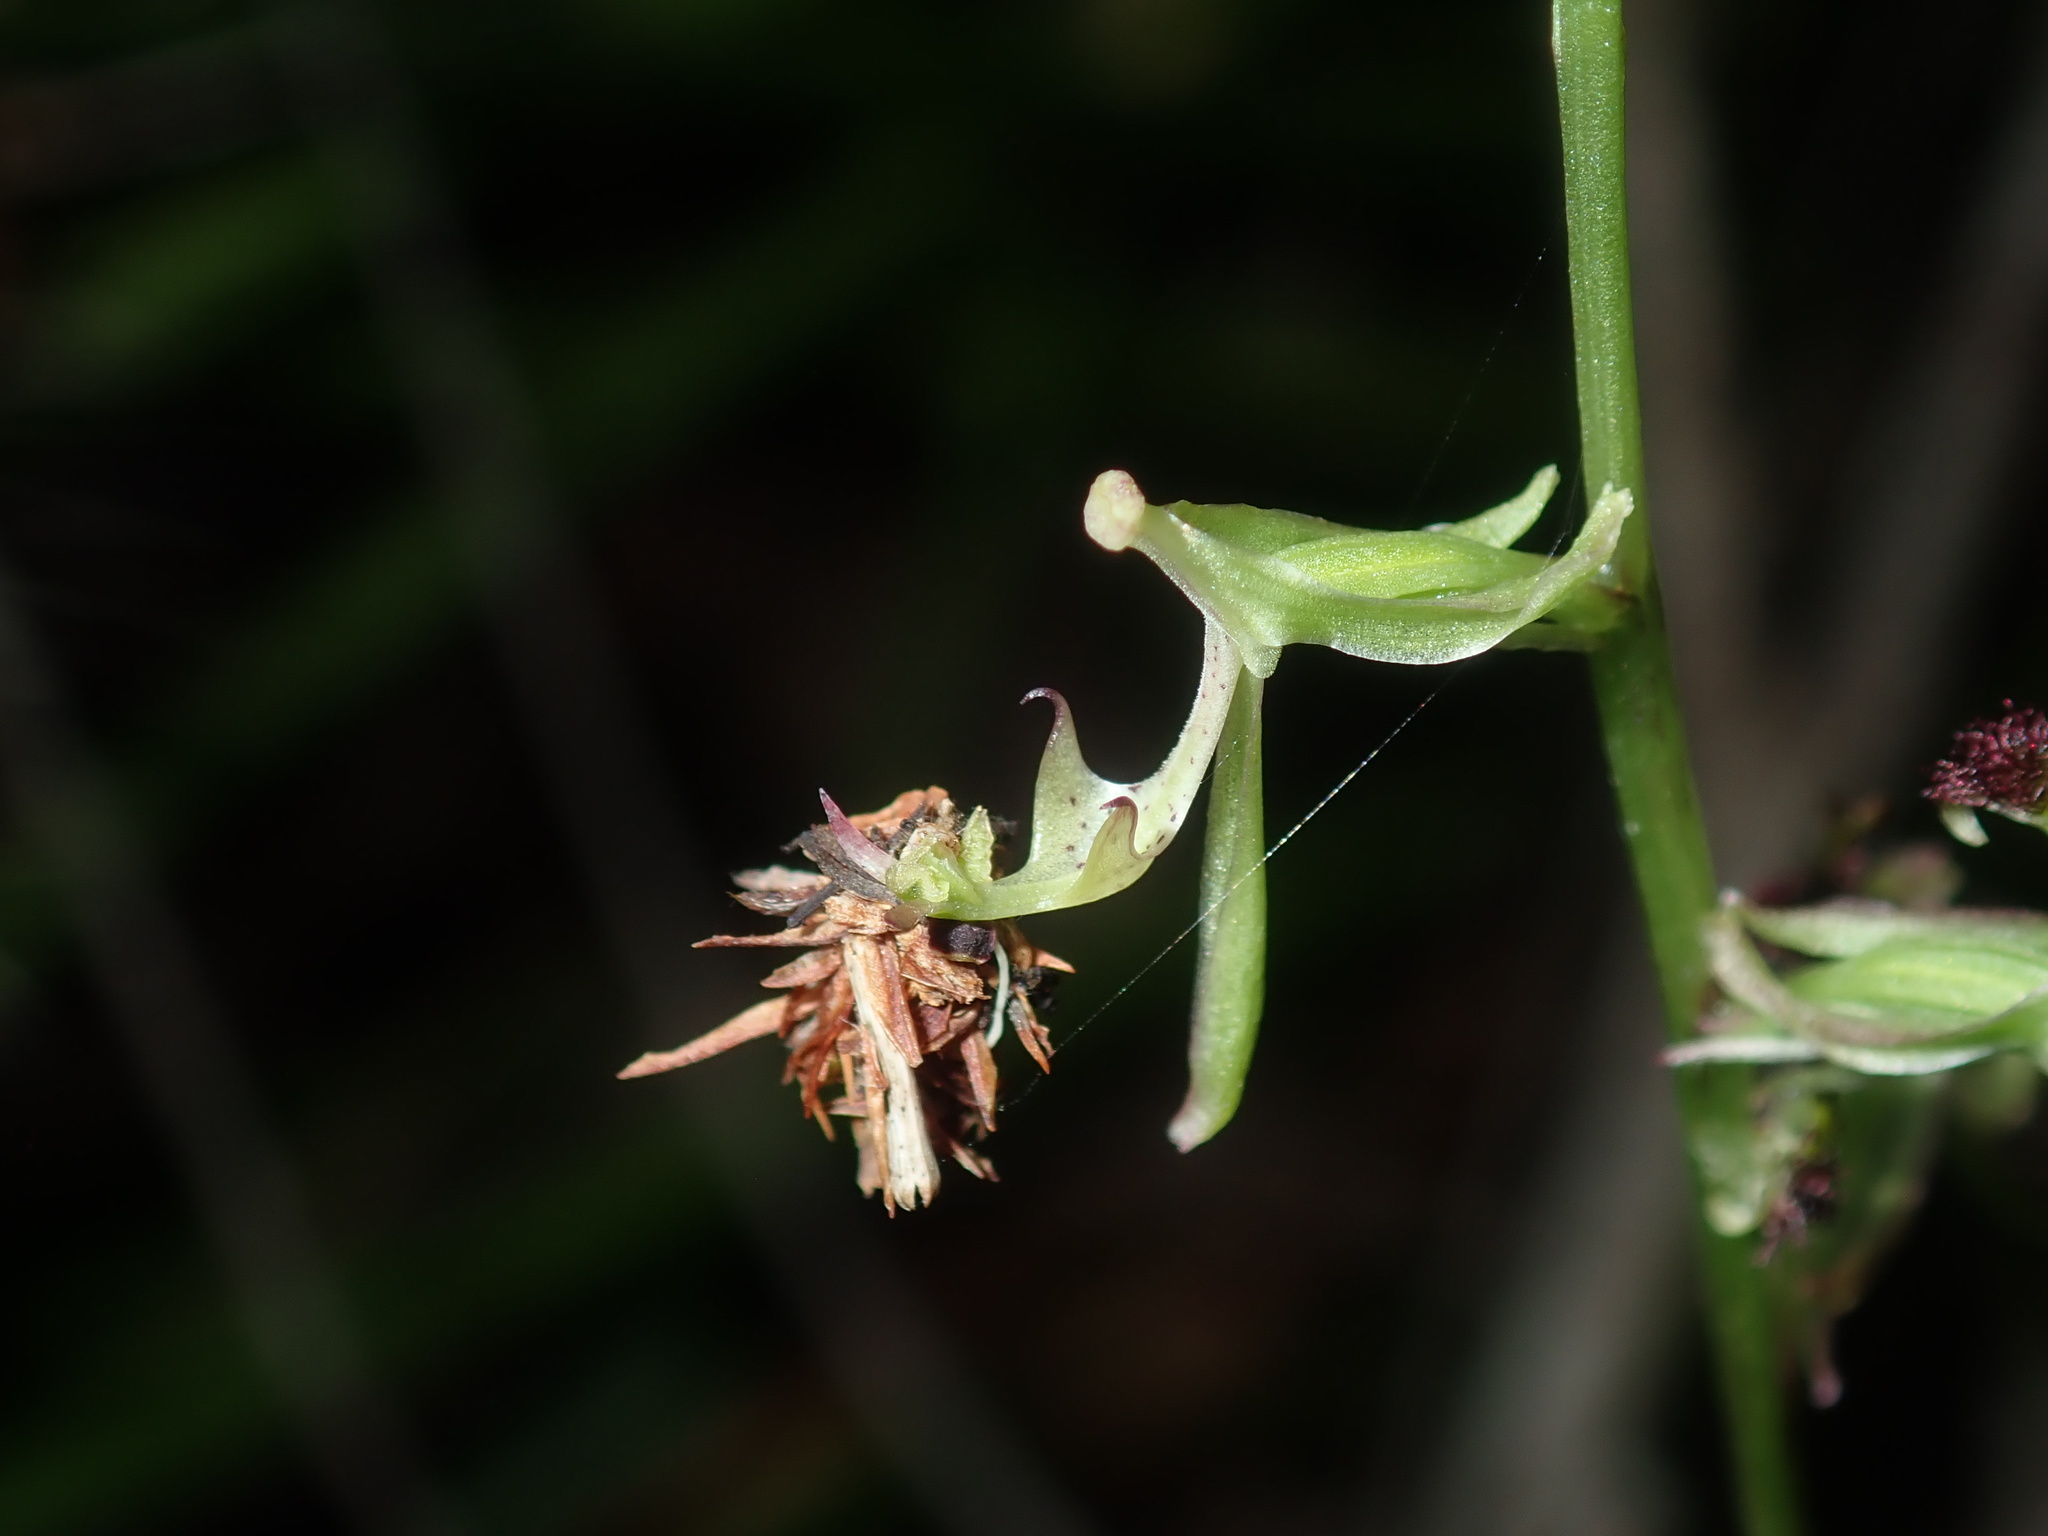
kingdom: Plantae
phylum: Tracheophyta
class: Liliopsida
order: Asparagales
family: Orchidaceae
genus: Arthrochilus
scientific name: Arthrochilus prolixus
